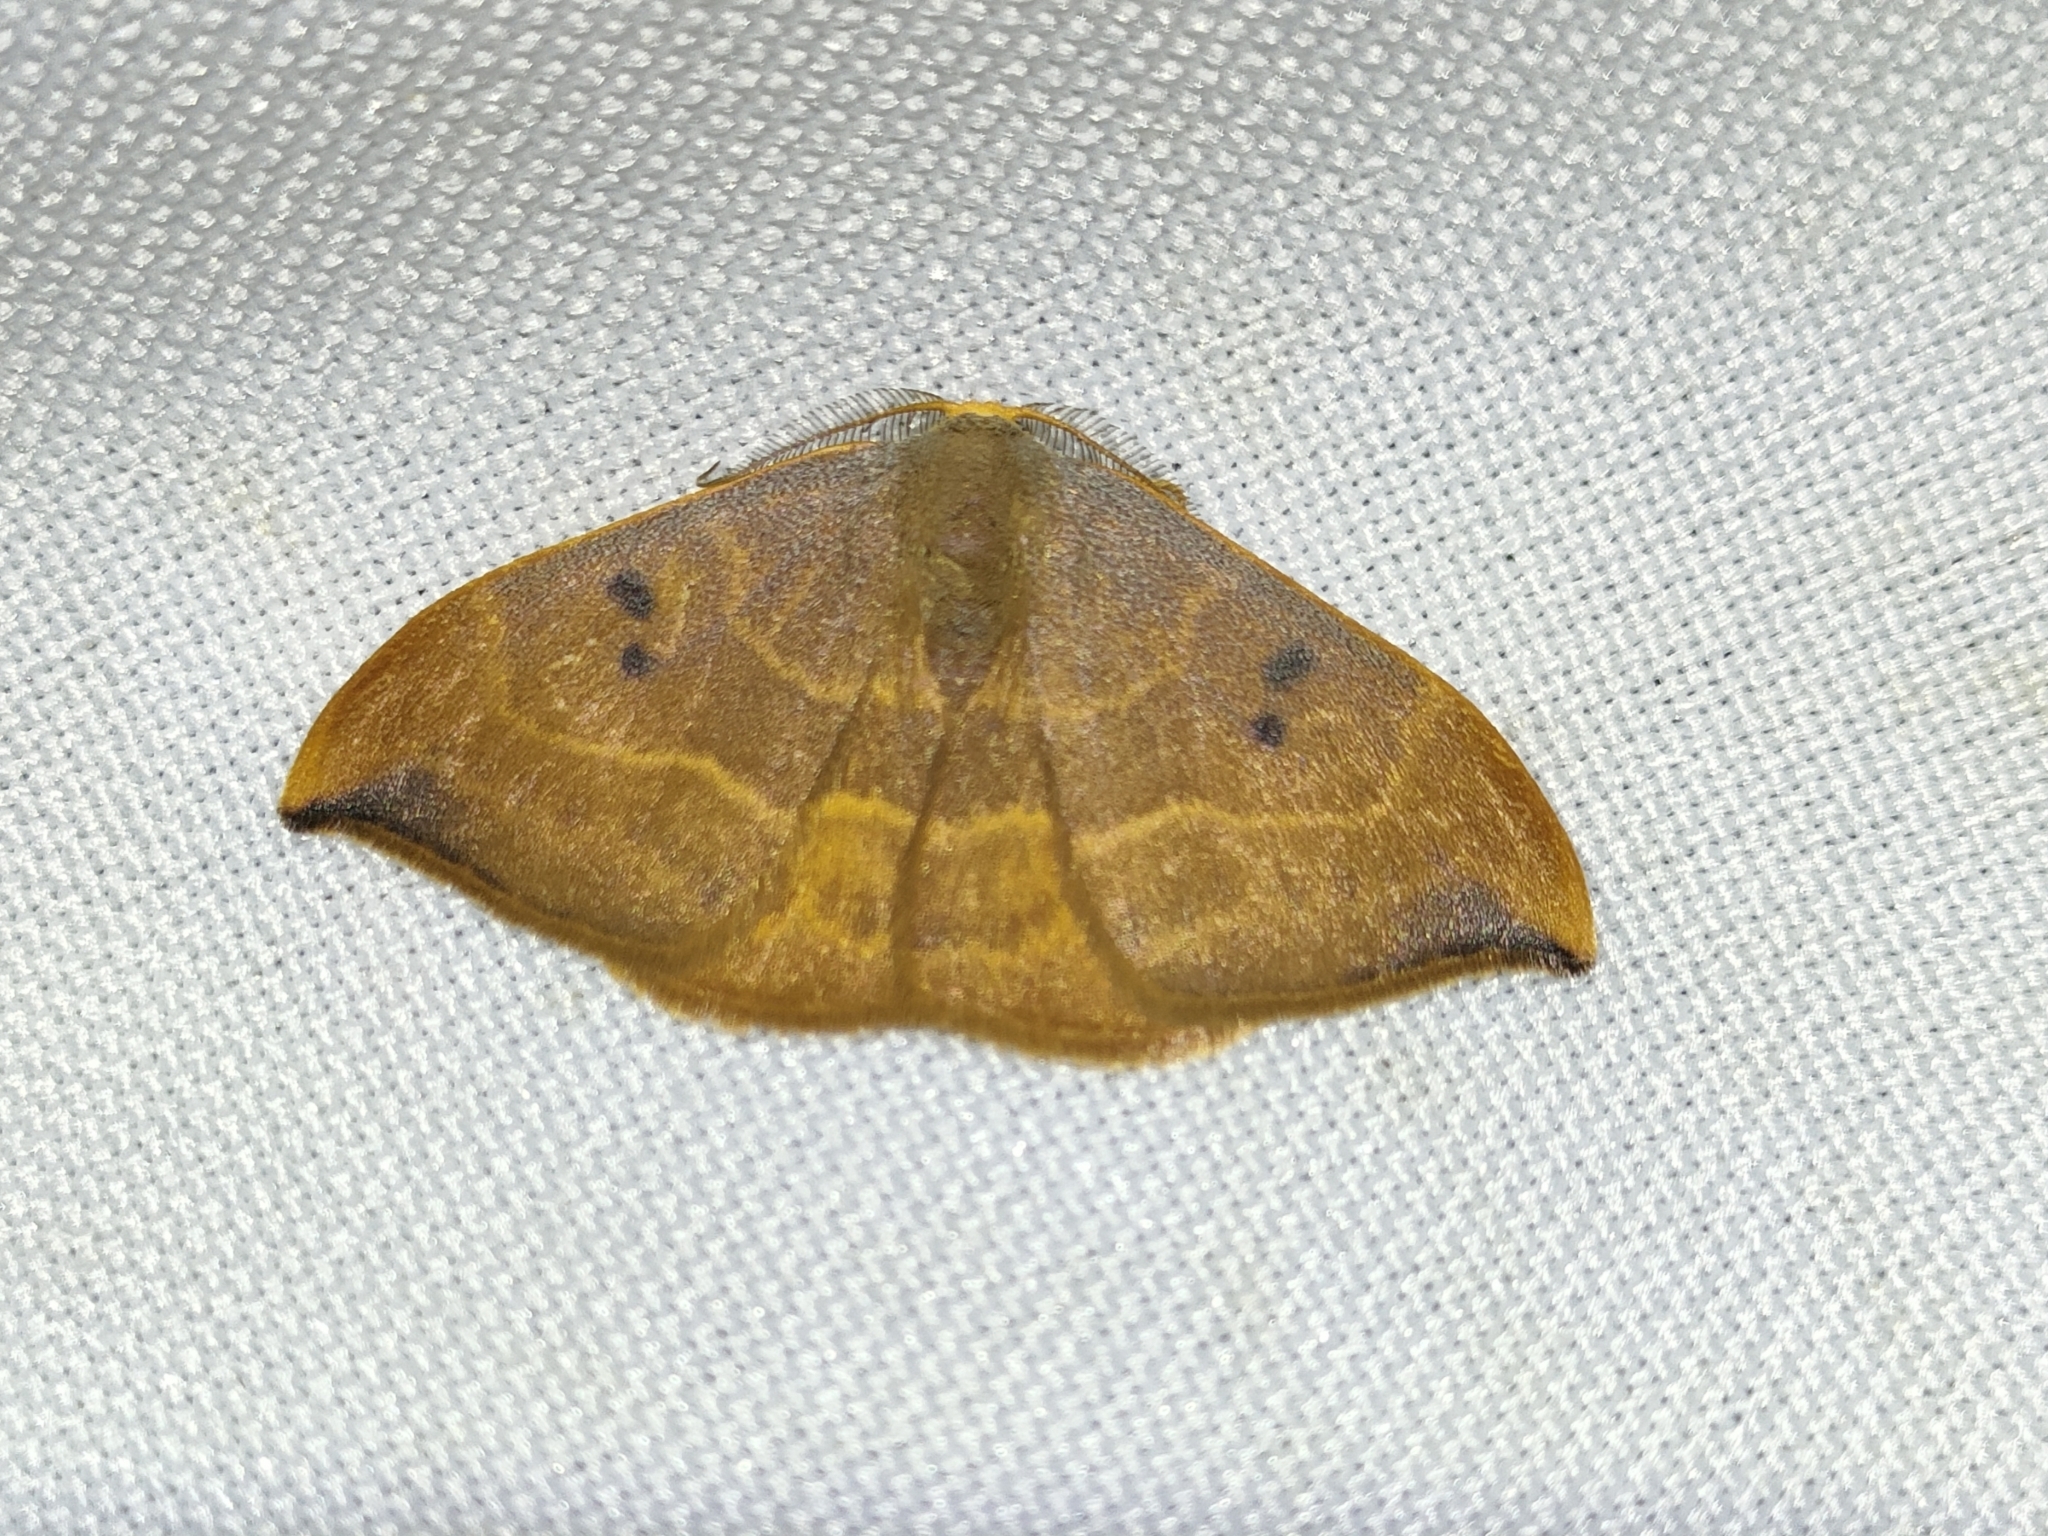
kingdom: Animalia
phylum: Arthropoda
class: Insecta
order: Lepidoptera
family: Drepanidae
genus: Watsonalla
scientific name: Watsonalla binaria
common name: Oak hook-tip
